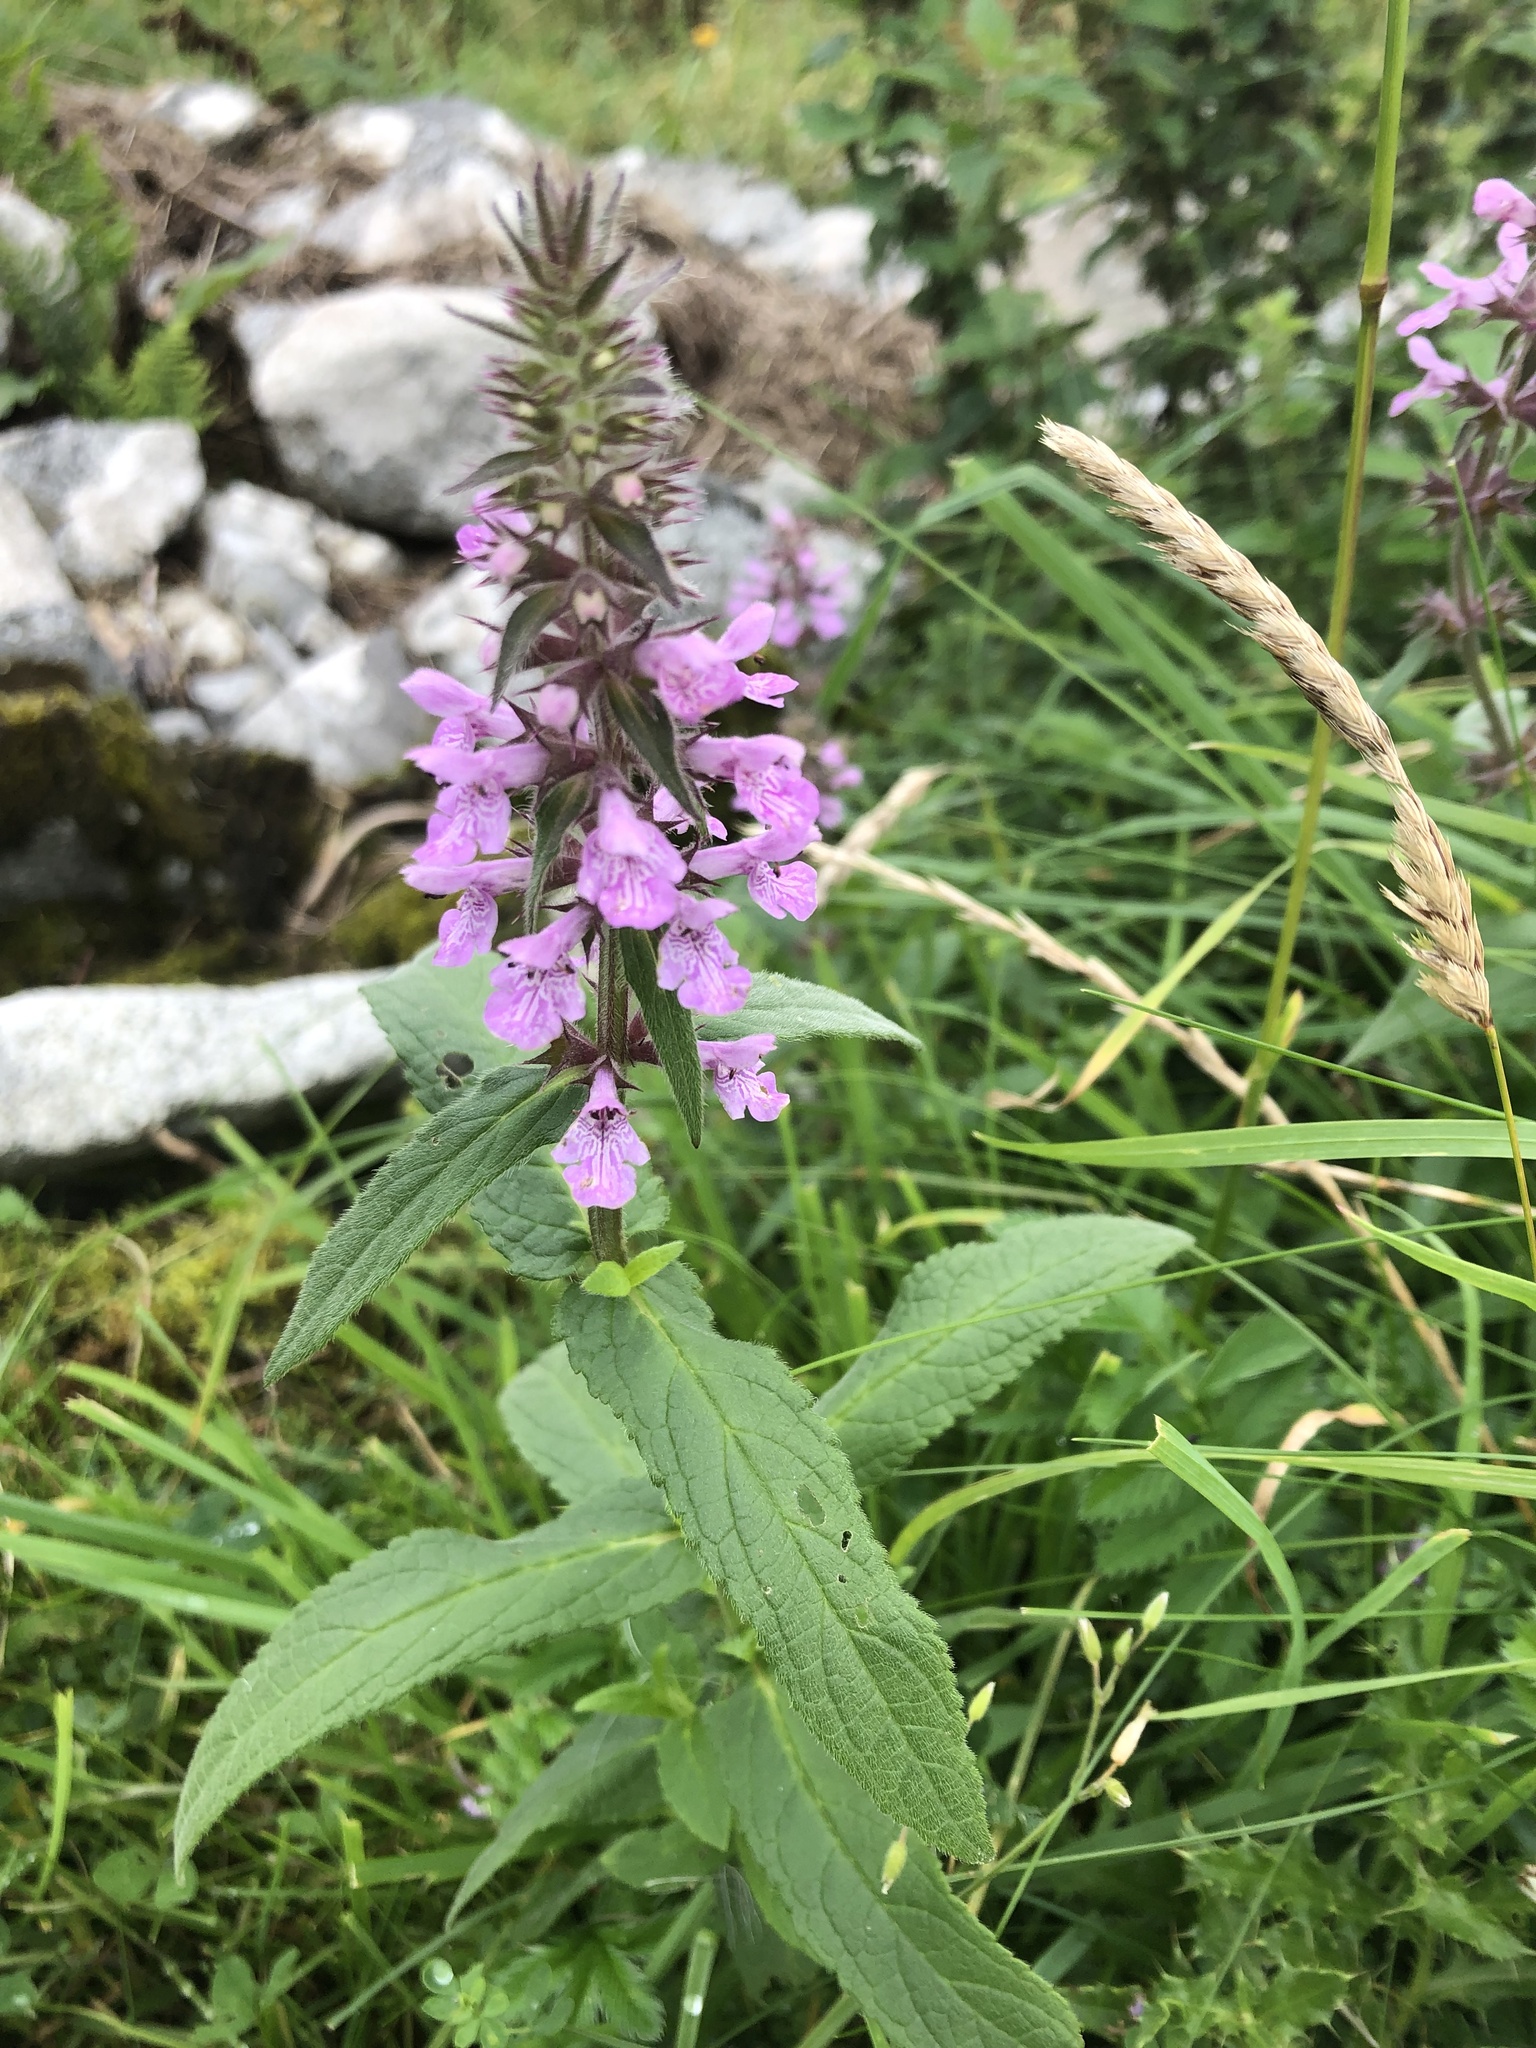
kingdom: Plantae
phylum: Tracheophyta
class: Magnoliopsida
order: Lamiales
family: Lamiaceae
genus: Stachys
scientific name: Stachys palustris
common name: Marsh woundwort
